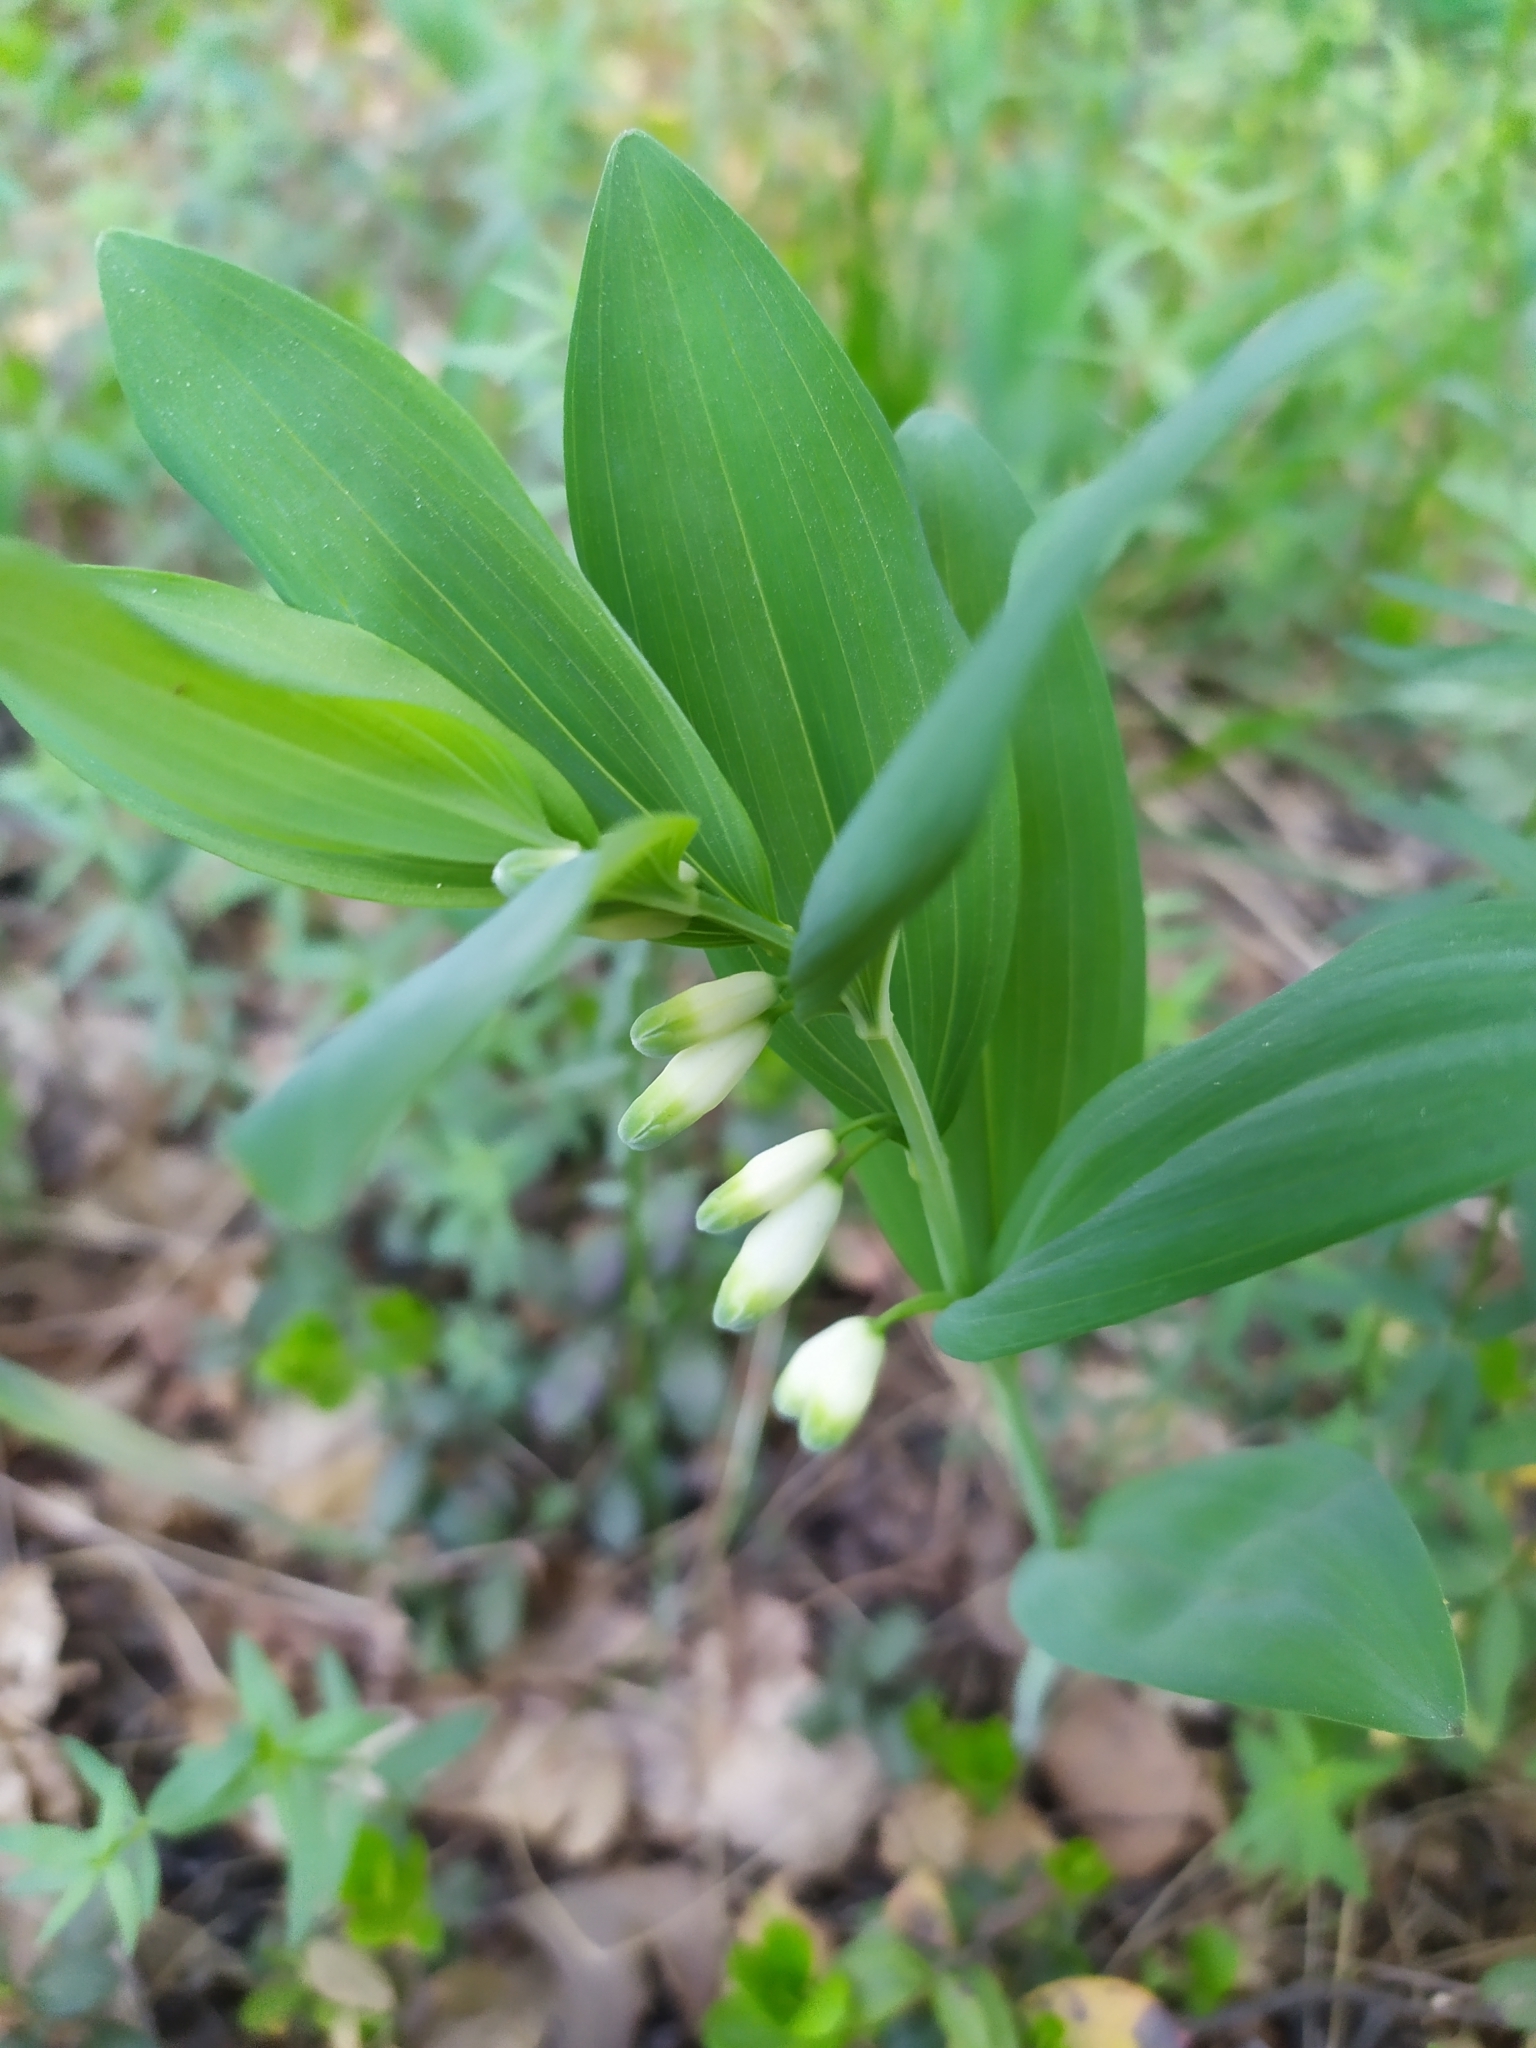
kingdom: Plantae
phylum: Tracheophyta
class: Liliopsida
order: Asparagales
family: Asparagaceae
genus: Polygonatum
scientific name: Polygonatum odoratum
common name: Angular solomon's-seal
